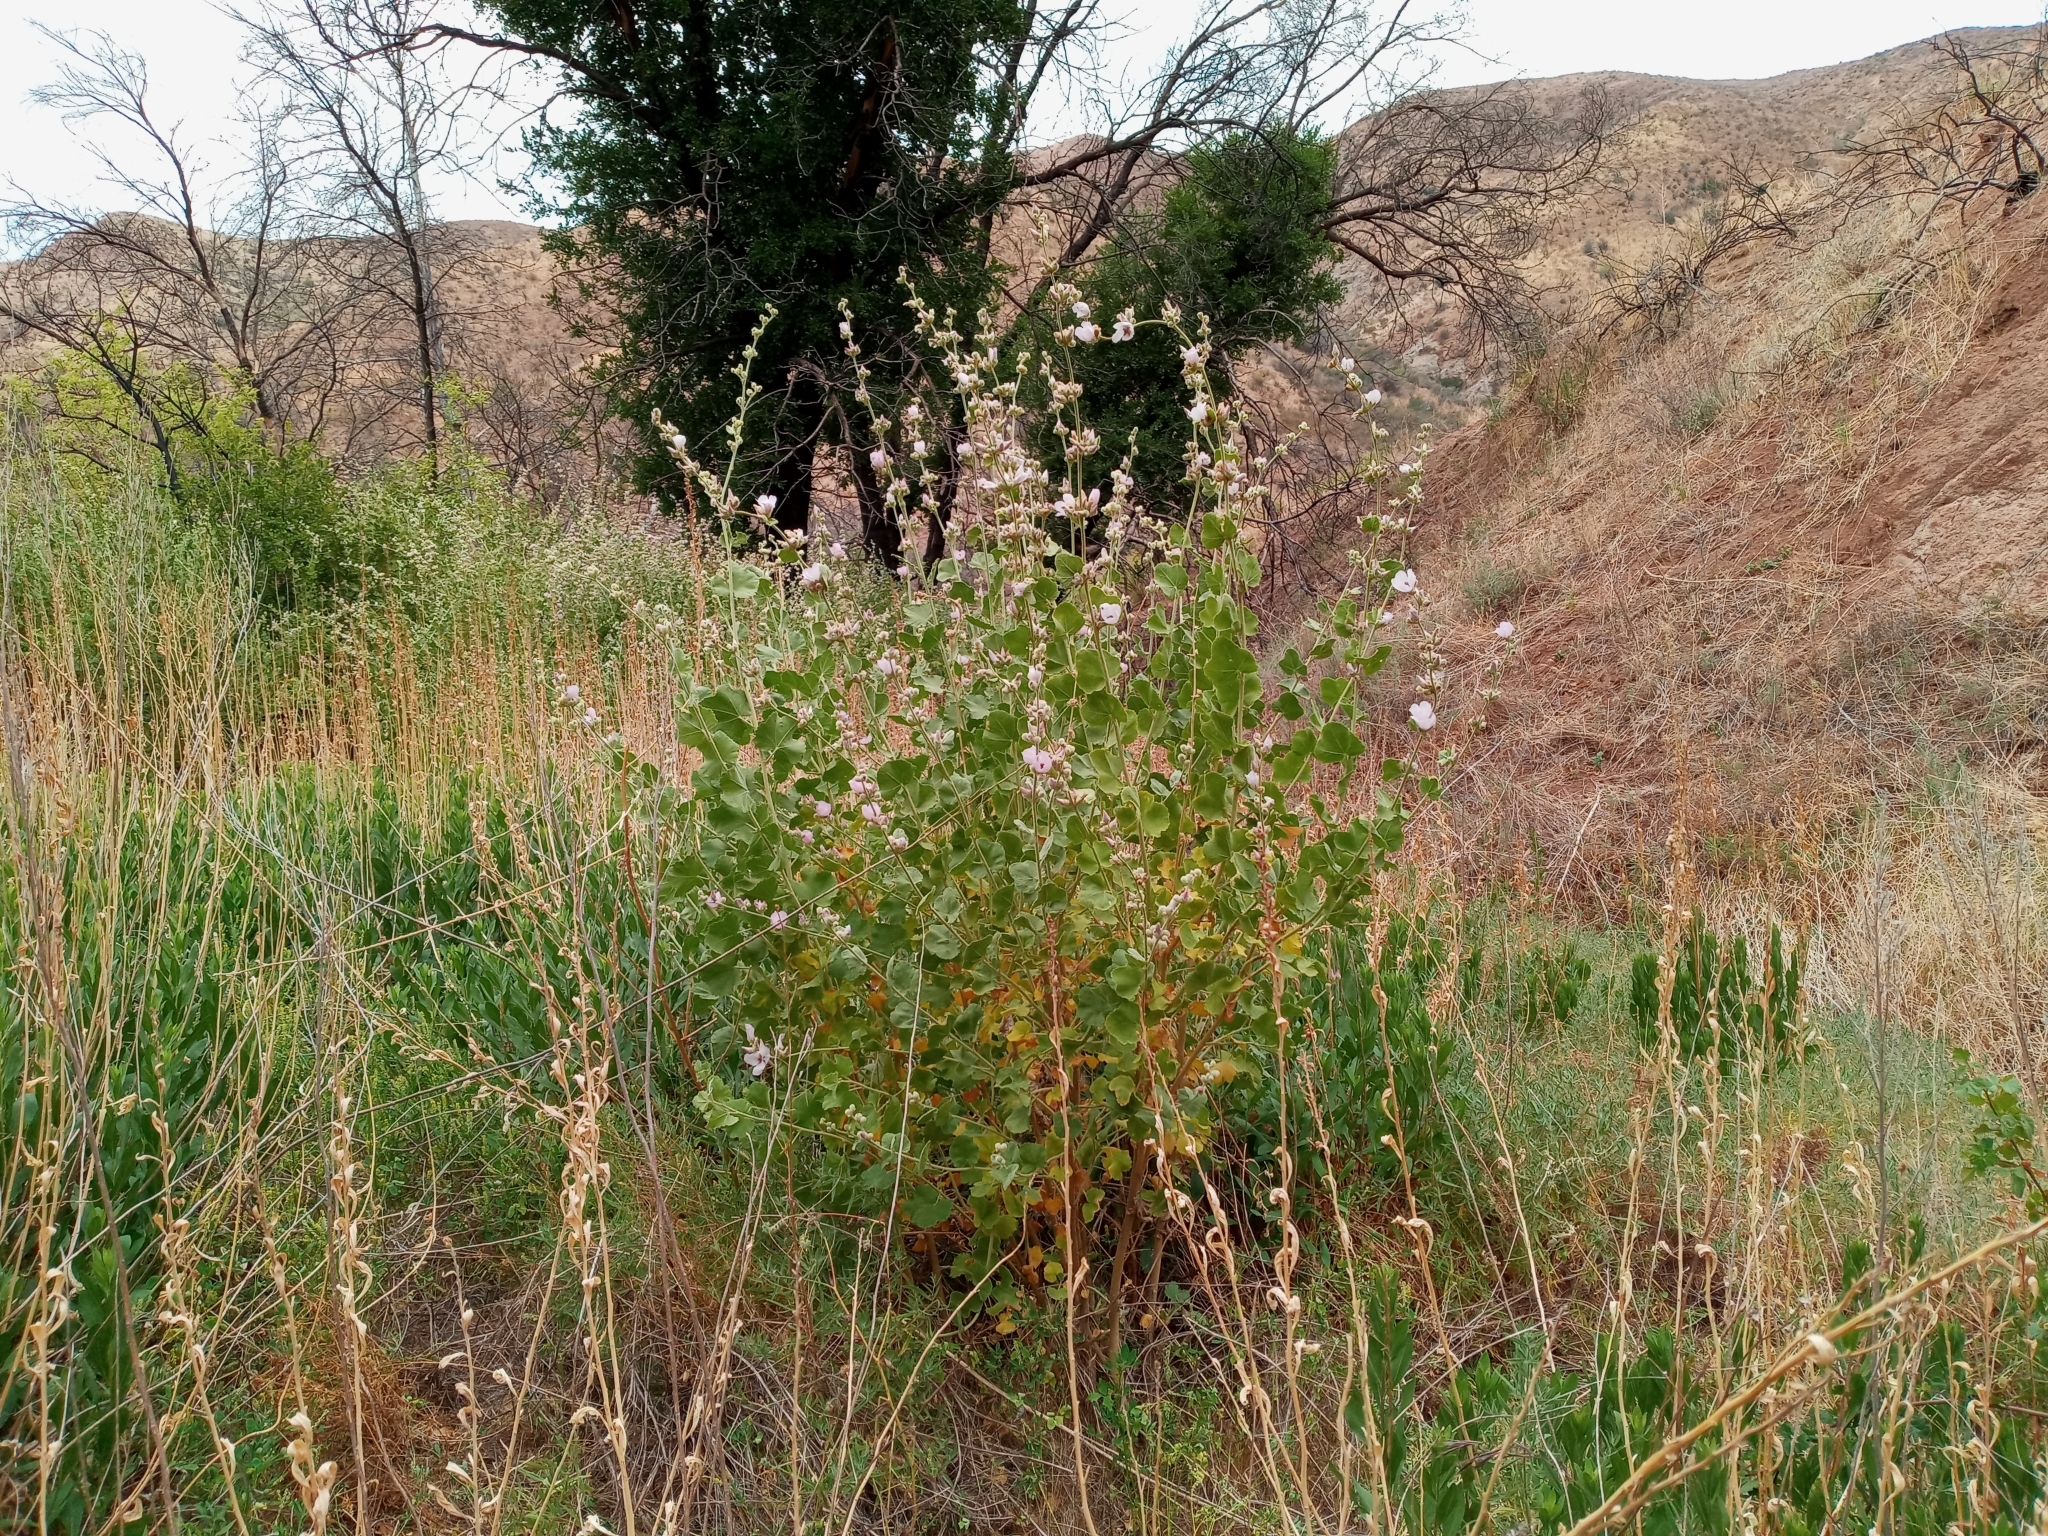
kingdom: Plantae
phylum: Tracheophyta
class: Magnoliopsida
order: Malvales
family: Malvaceae
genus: Malacothamnus
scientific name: Malacothamnus fremontii
